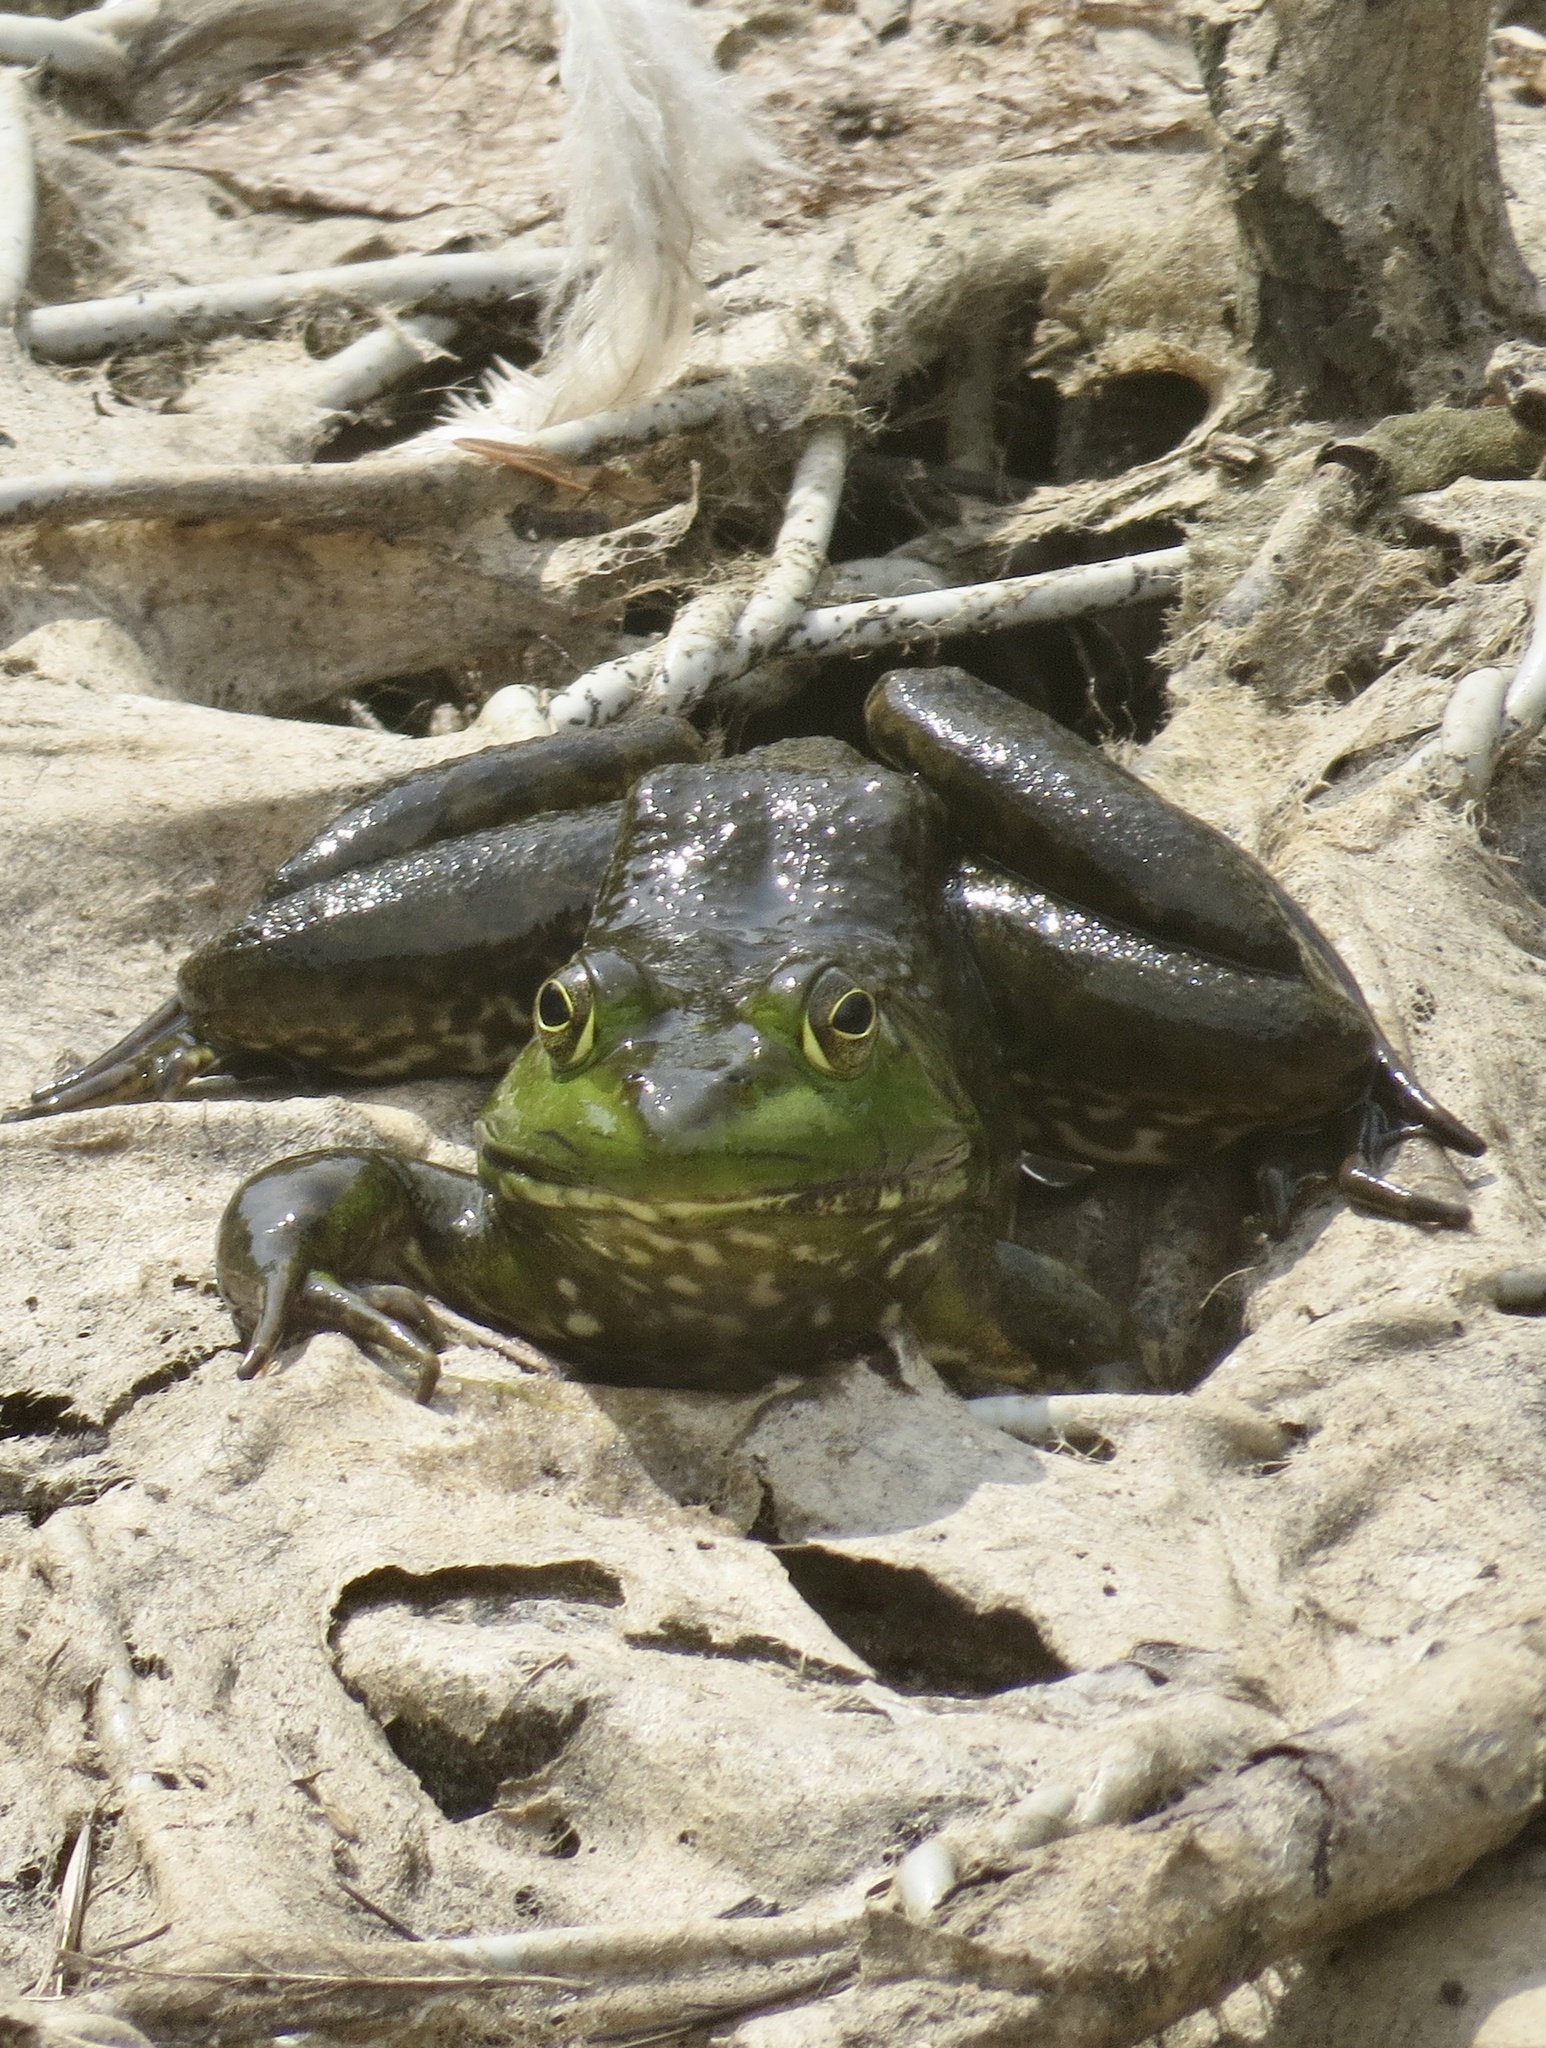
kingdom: Animalia
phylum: Chordata
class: Amphibia
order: Anura
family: Ranidae
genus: Lithobates
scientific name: Lithobates catesbeianus
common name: American bullfrog
